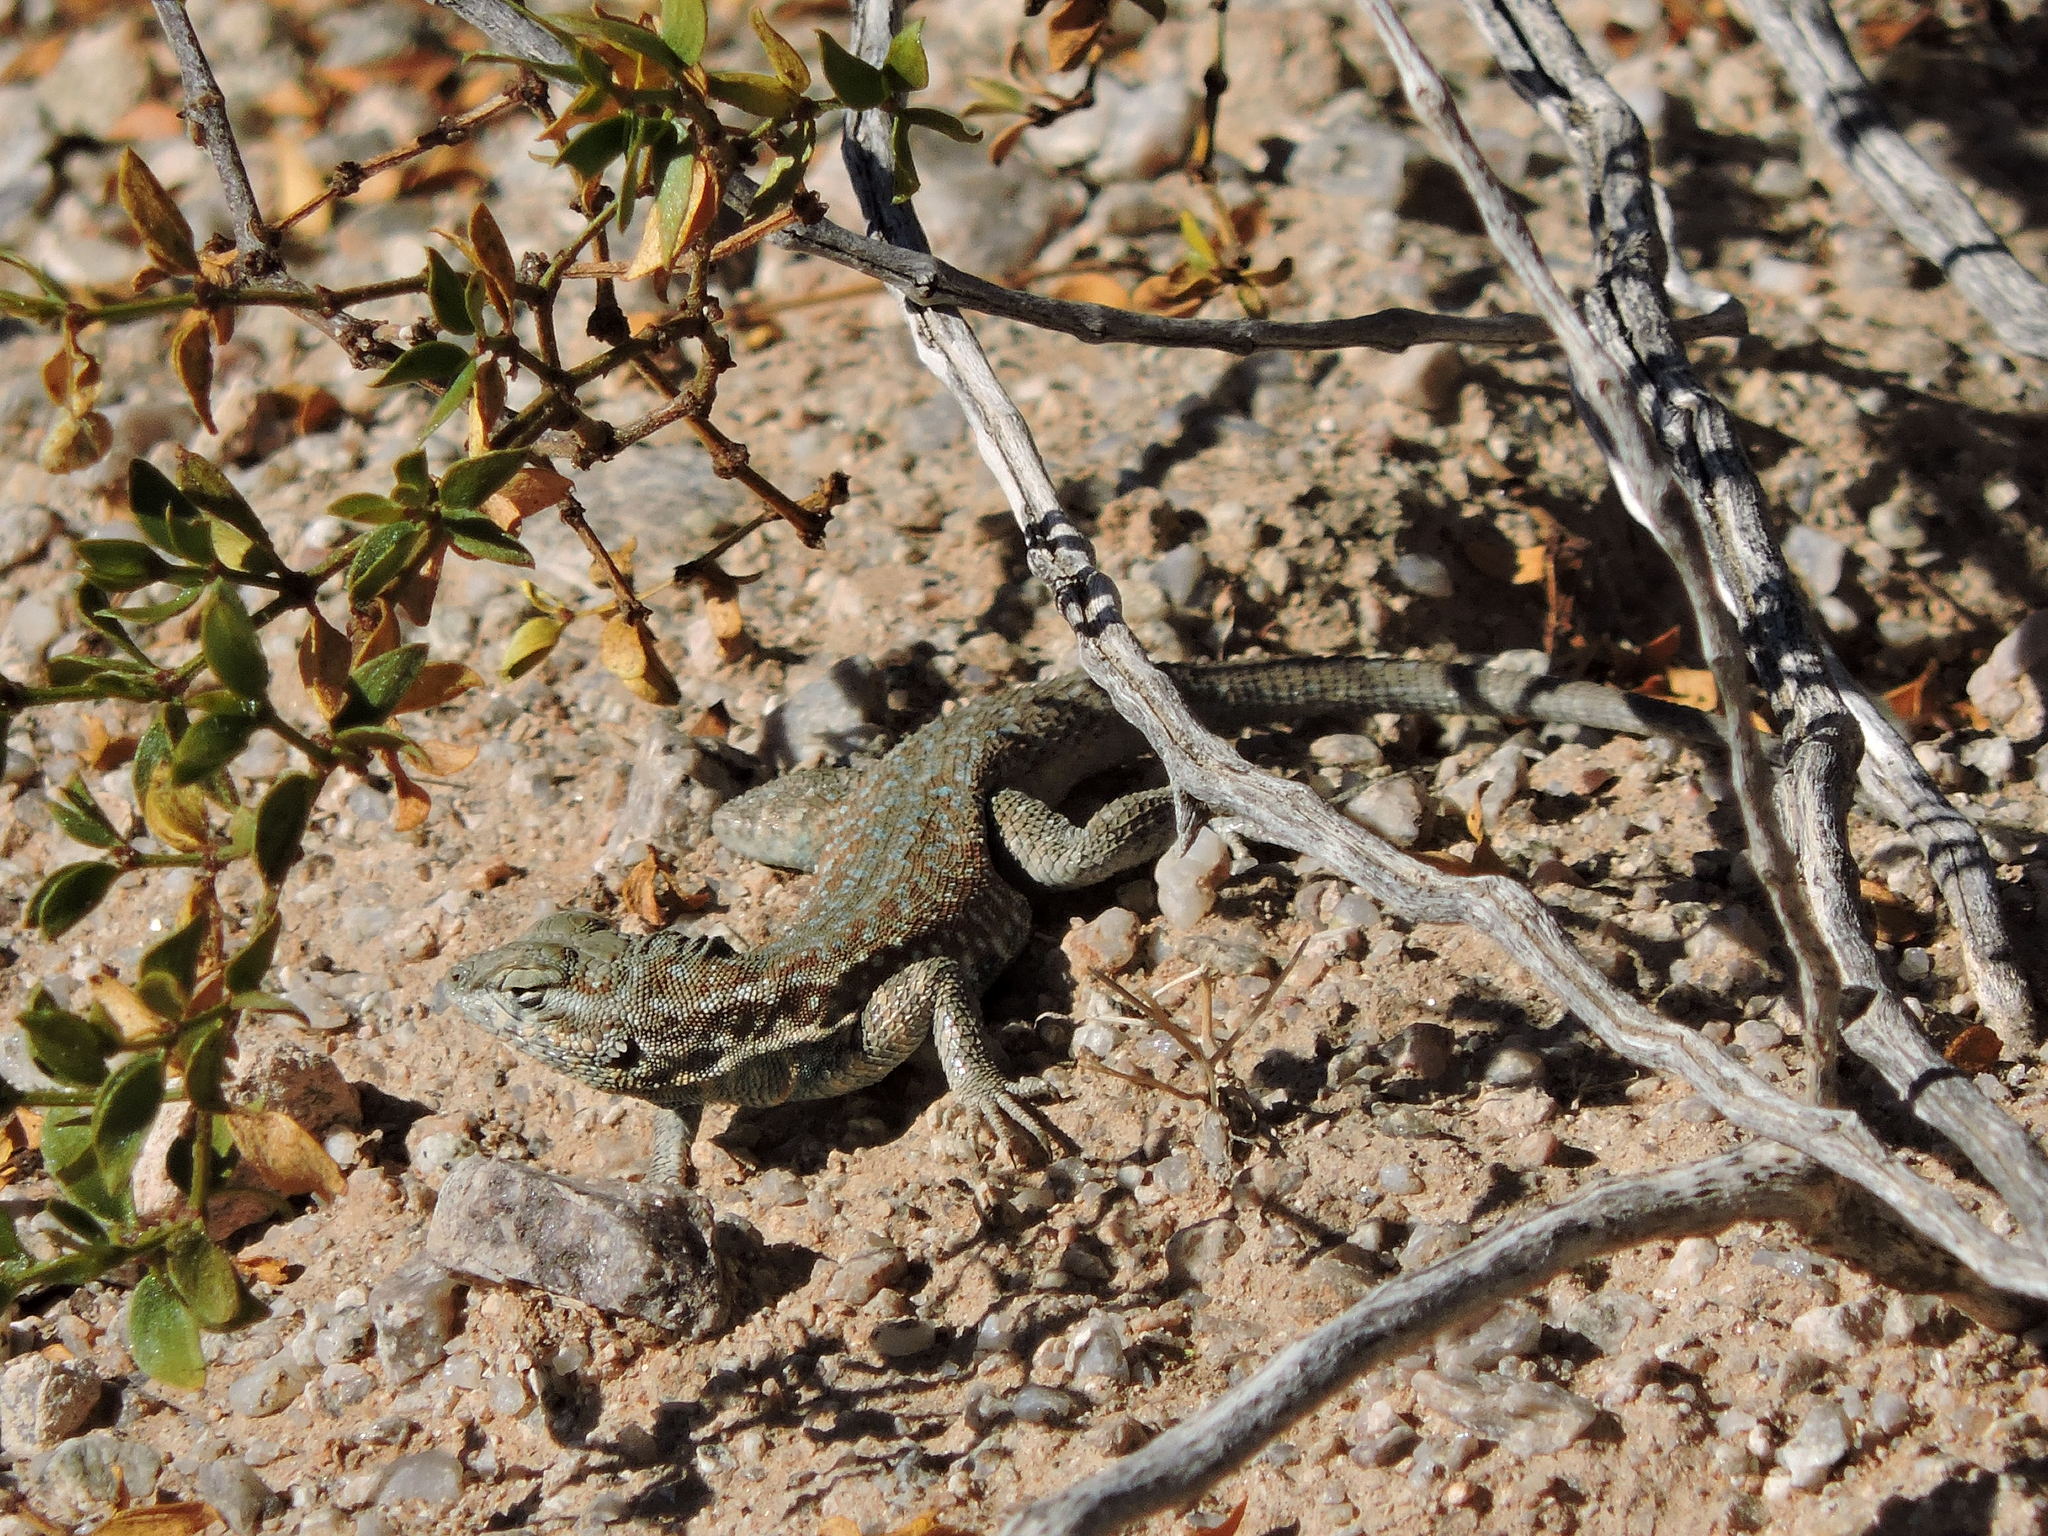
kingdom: Animalia
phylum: Chordata
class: Squamata
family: Phrynosomatidae
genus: Uta
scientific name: Uta stansburiana
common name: Side-blotched lizard
